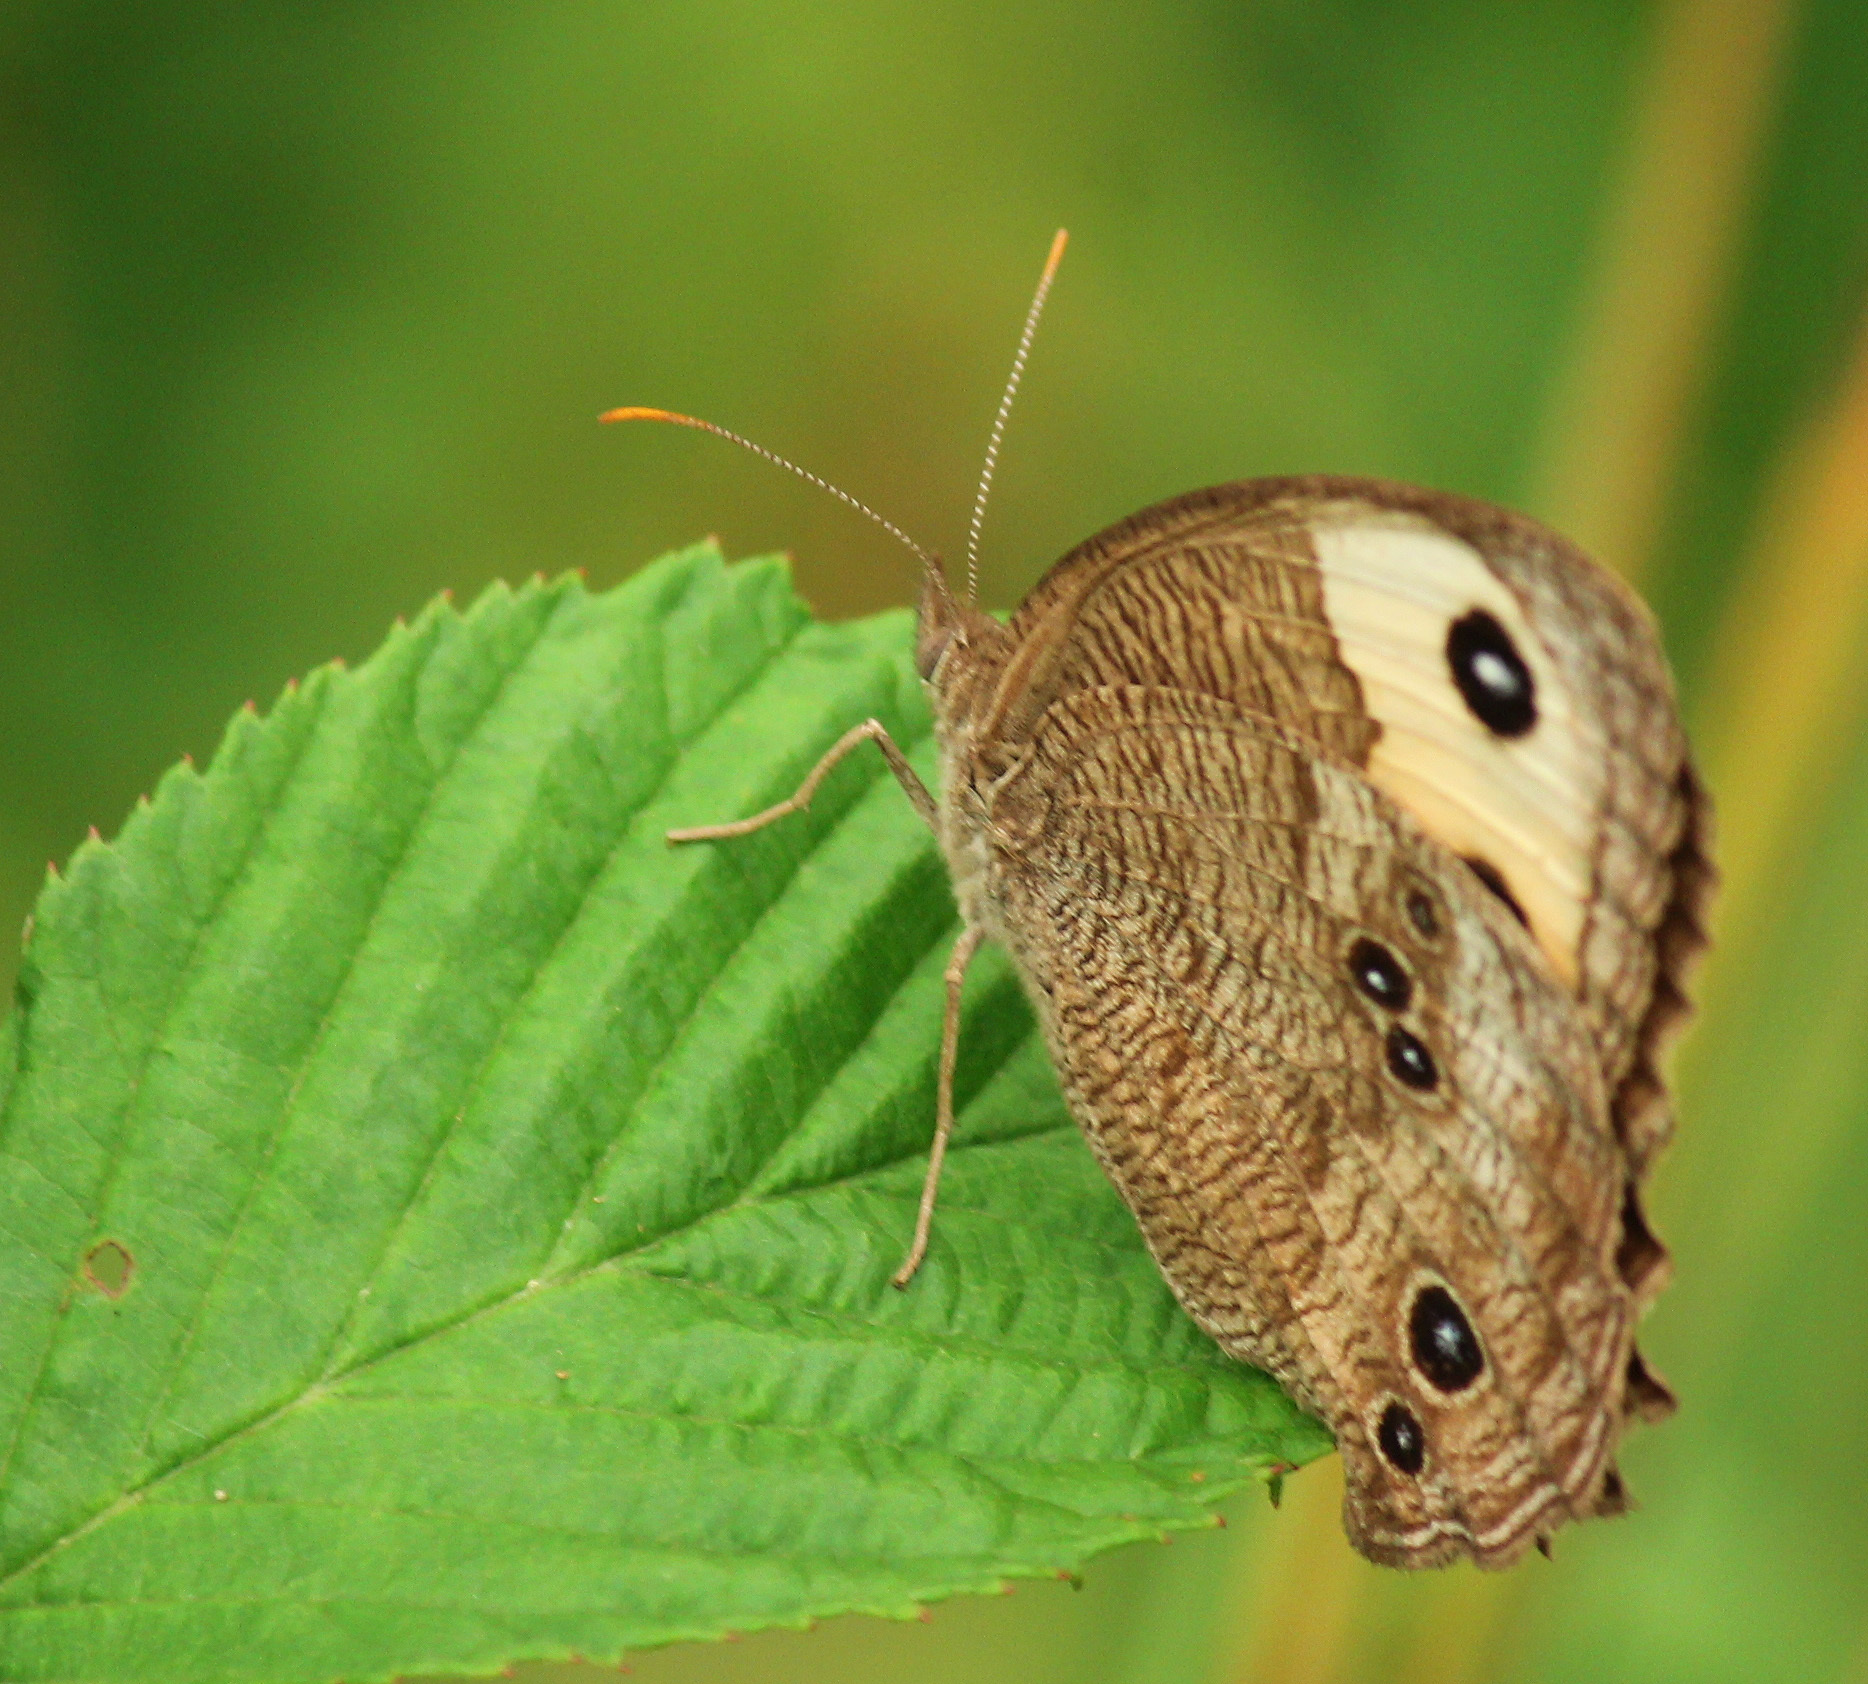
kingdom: Animalia
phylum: Arthropoda
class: Insecta
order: Lepidoptera
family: Nymphalidae
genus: Cercyonis
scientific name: Cercyonis pegala
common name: Common wood-nymph
